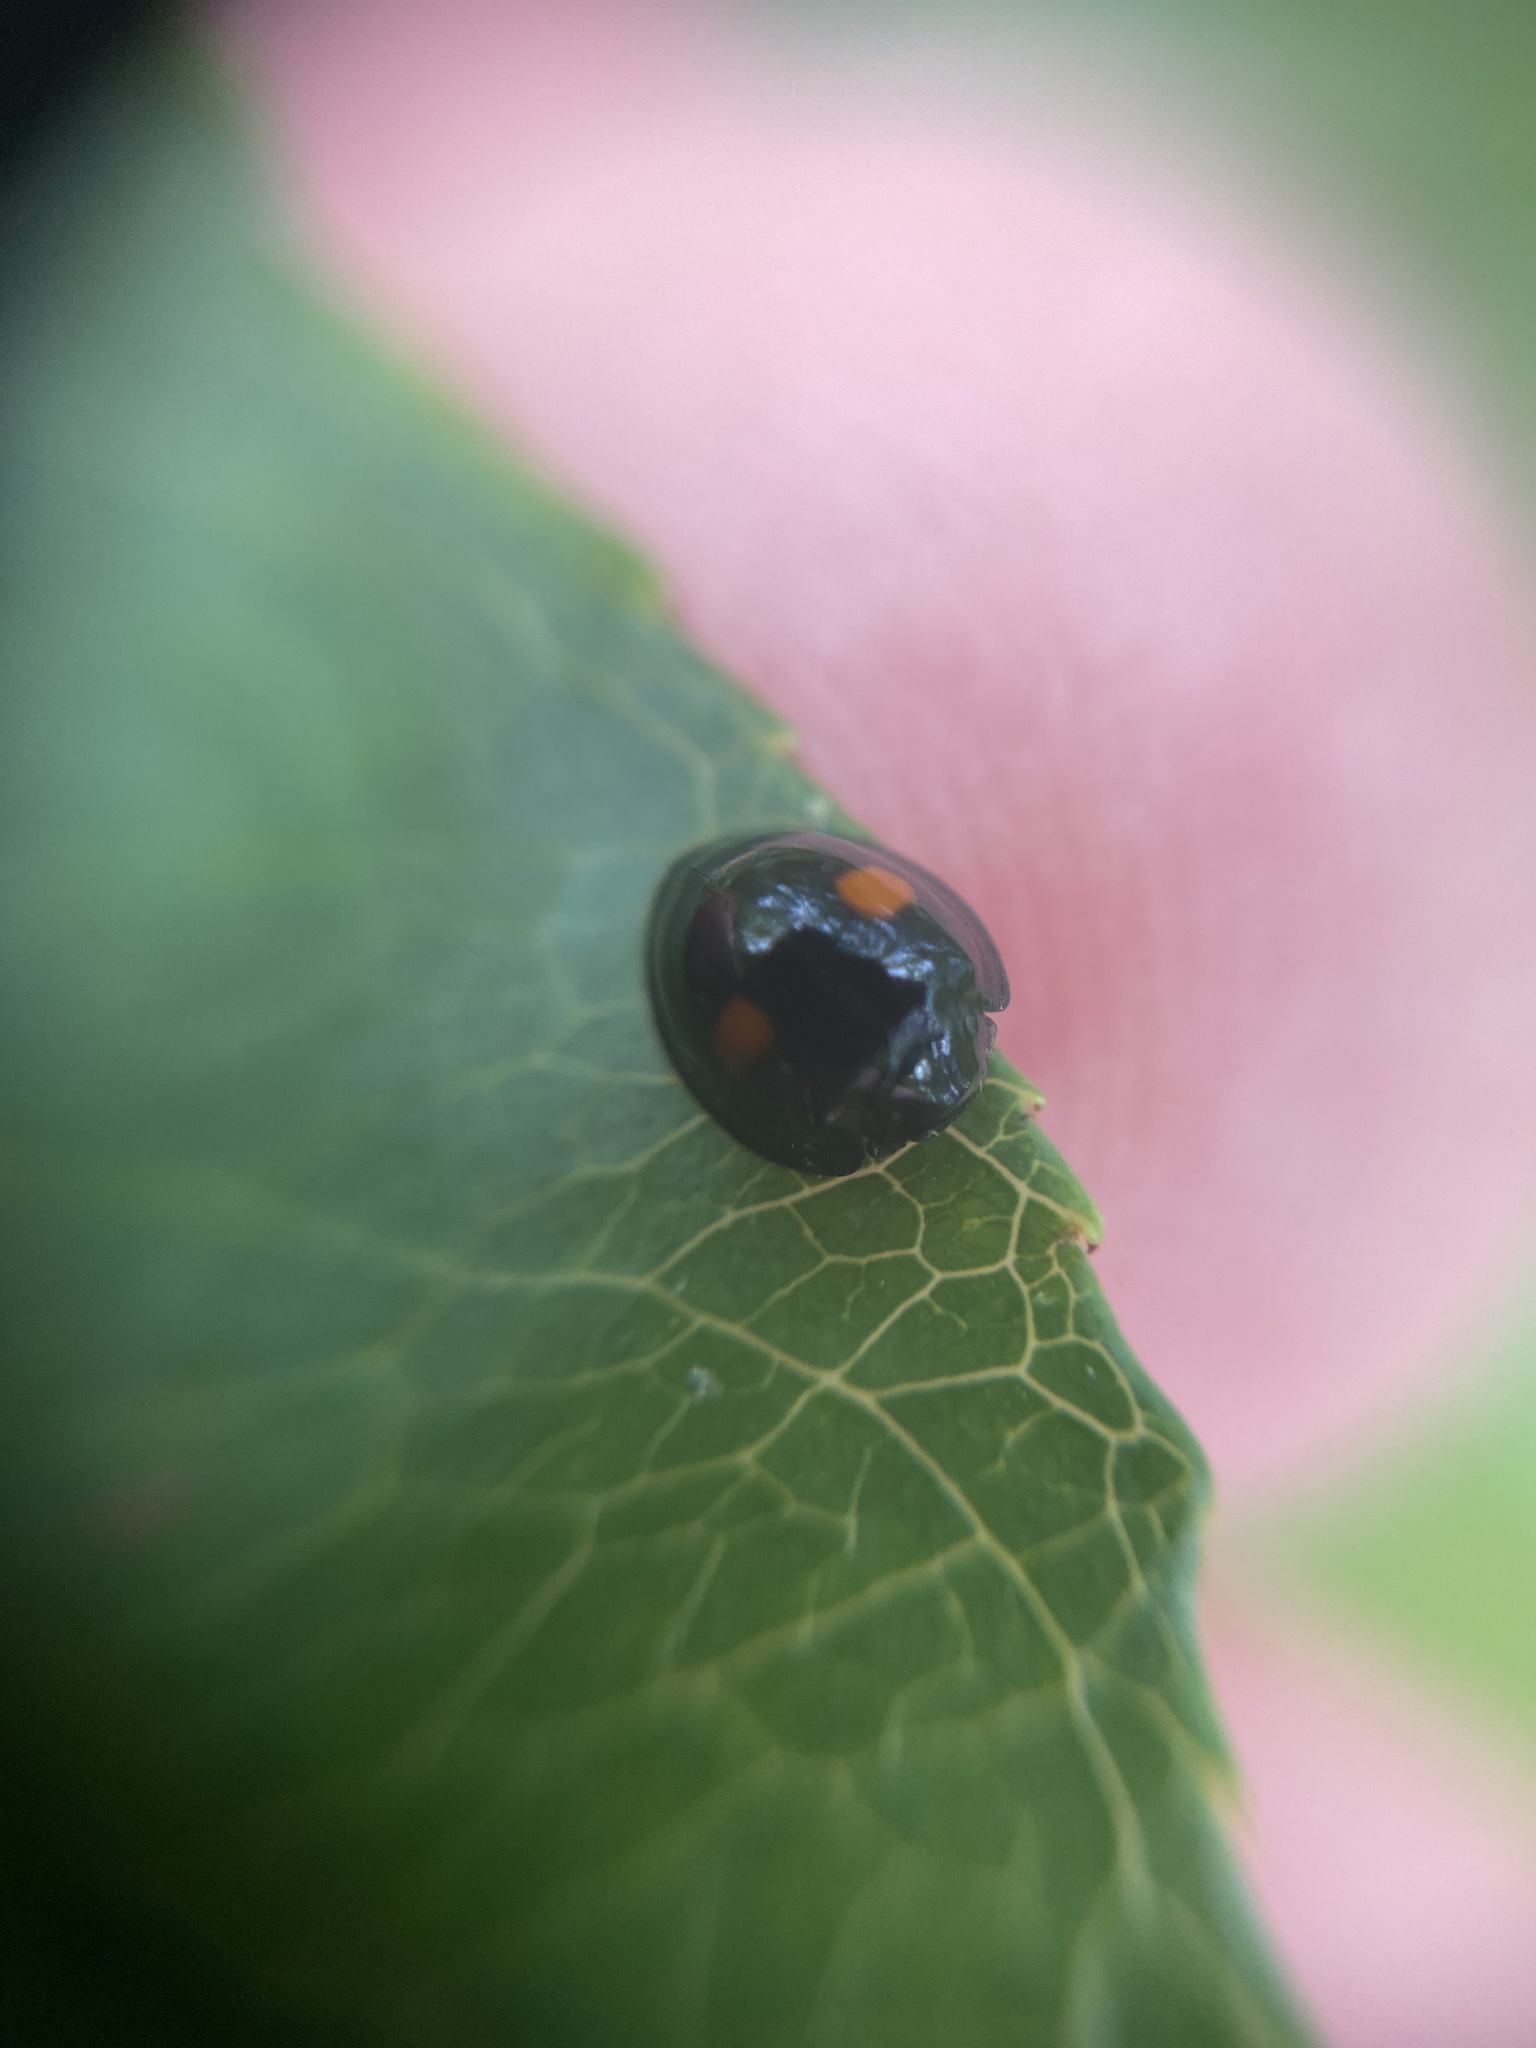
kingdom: Animalia
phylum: Arthropoda
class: Insecta
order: Coleoptera
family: Coccinellidae
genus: Chilocorus
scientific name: Chilocorus renipustulatus
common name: Kidney-spot ladybird
